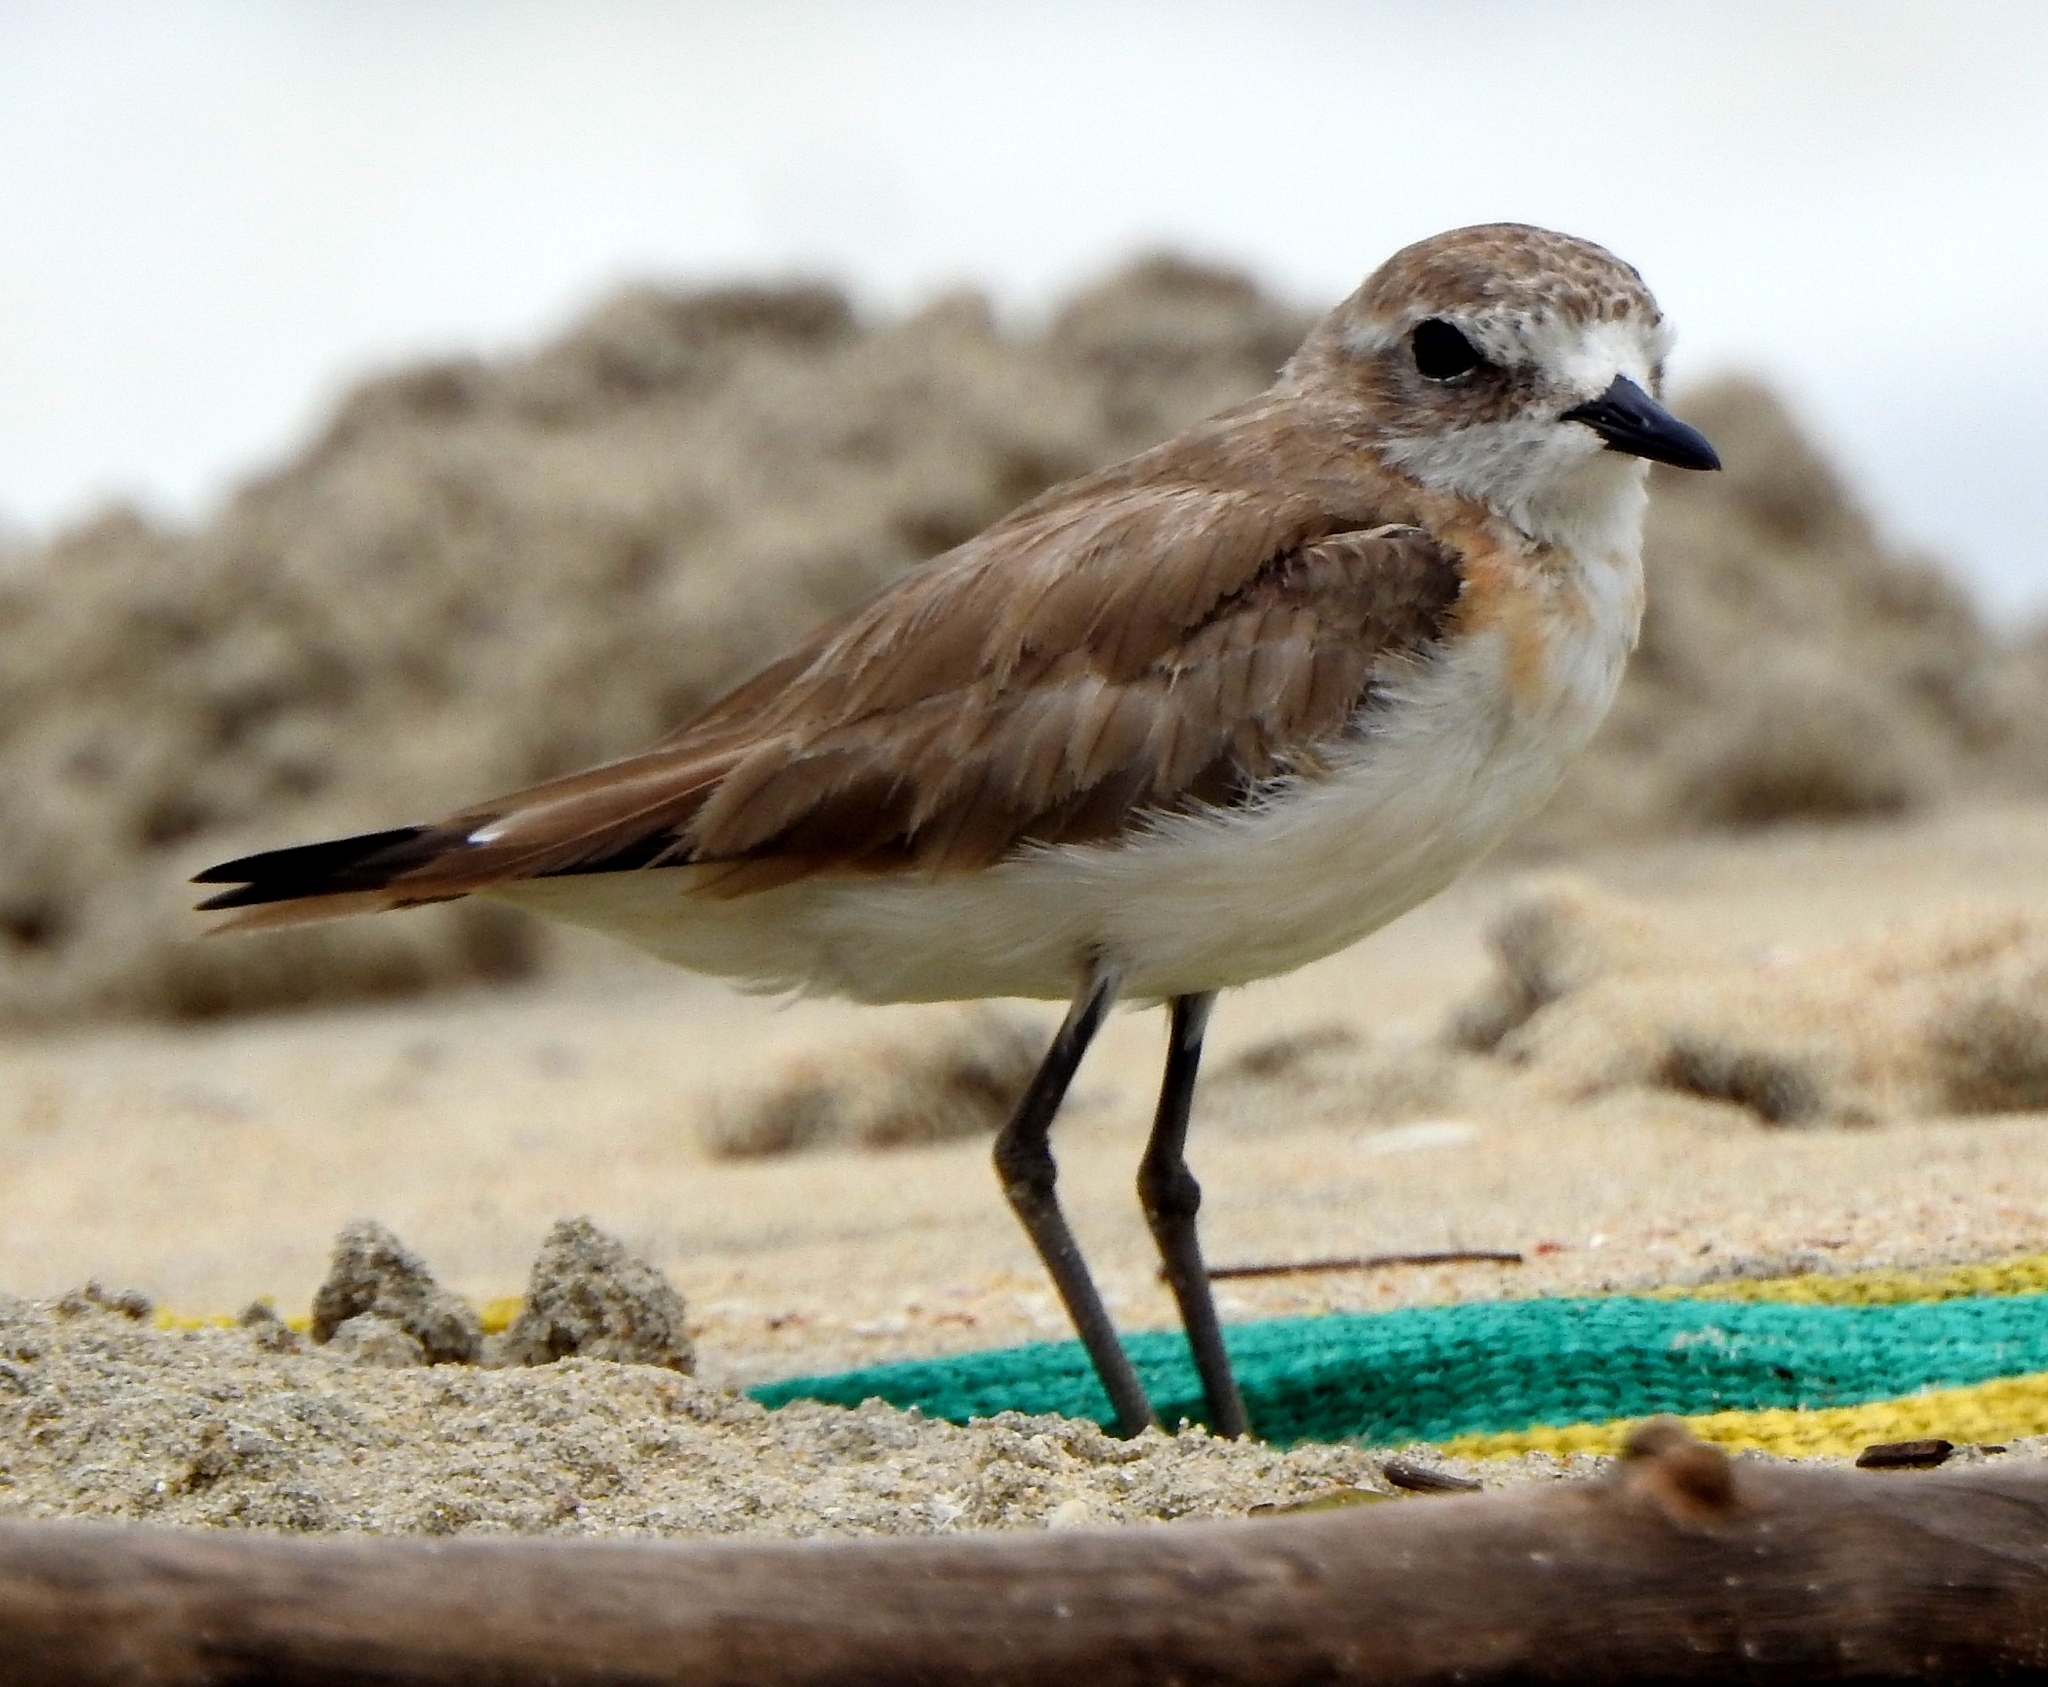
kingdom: Animalia
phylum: Chordata
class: Aves
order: Charadriiformes
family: Charadriidae
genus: Anarhynchus
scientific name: Anarhynchus
